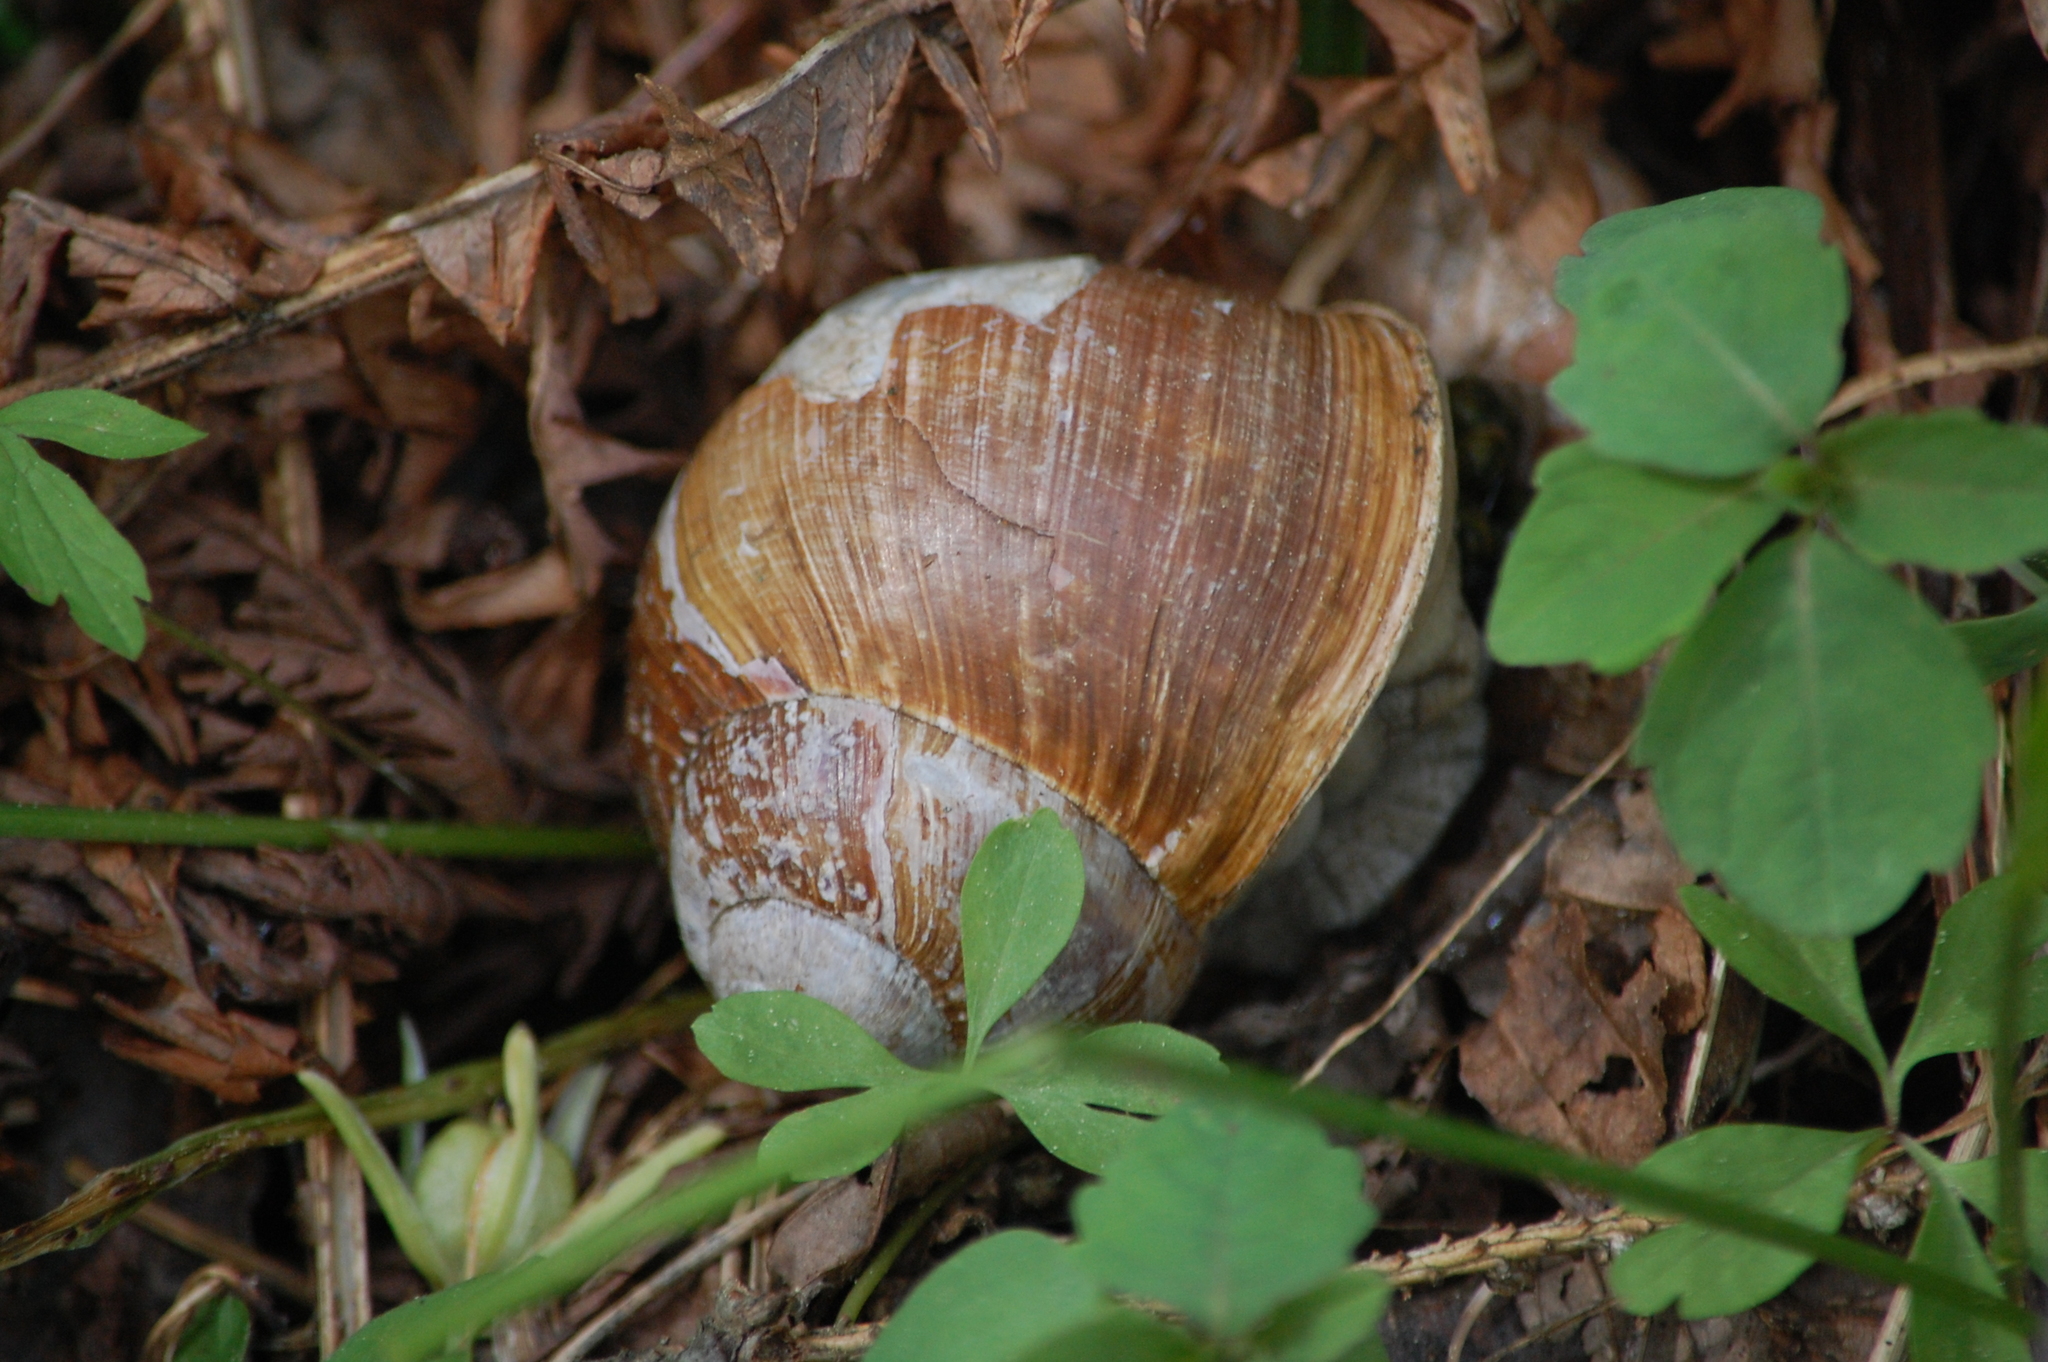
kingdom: Animalia
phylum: Mollusca
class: Gastropoda
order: Stylommatophora
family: Helicidae
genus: Helix
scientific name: Helix pomatia
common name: Roman snail
